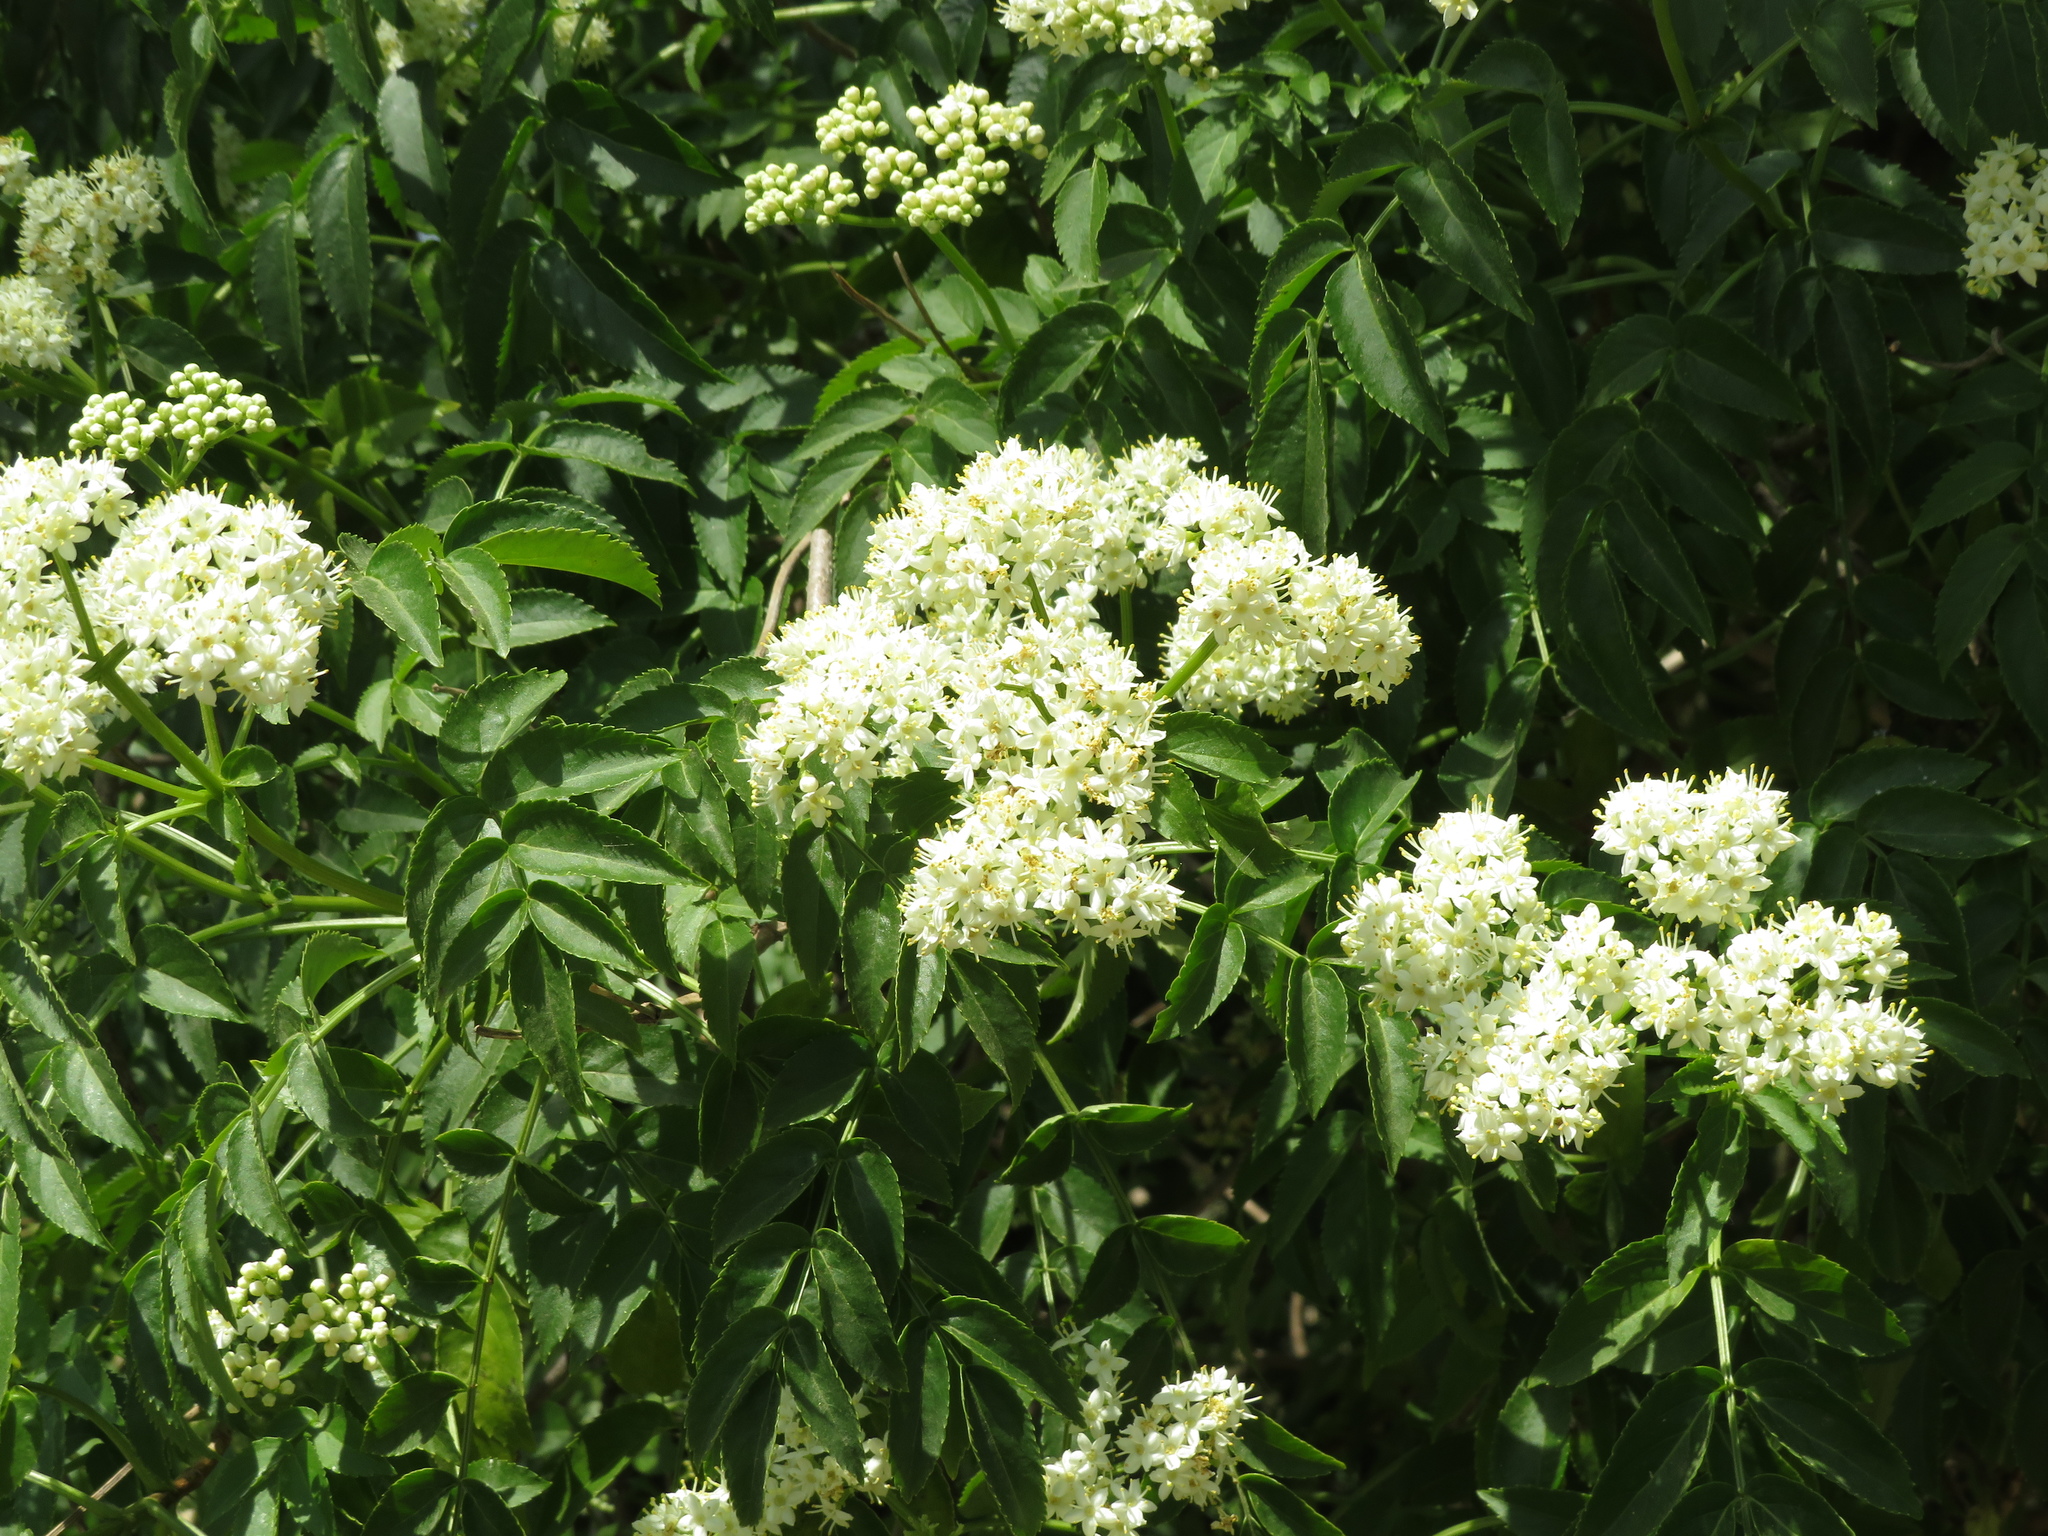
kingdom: Plantae
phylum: Tracheophyta
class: Magnoliopsida
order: Dipsacales
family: Viburnaceae
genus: Sambucus
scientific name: Sambucus australis
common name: Southern elder
